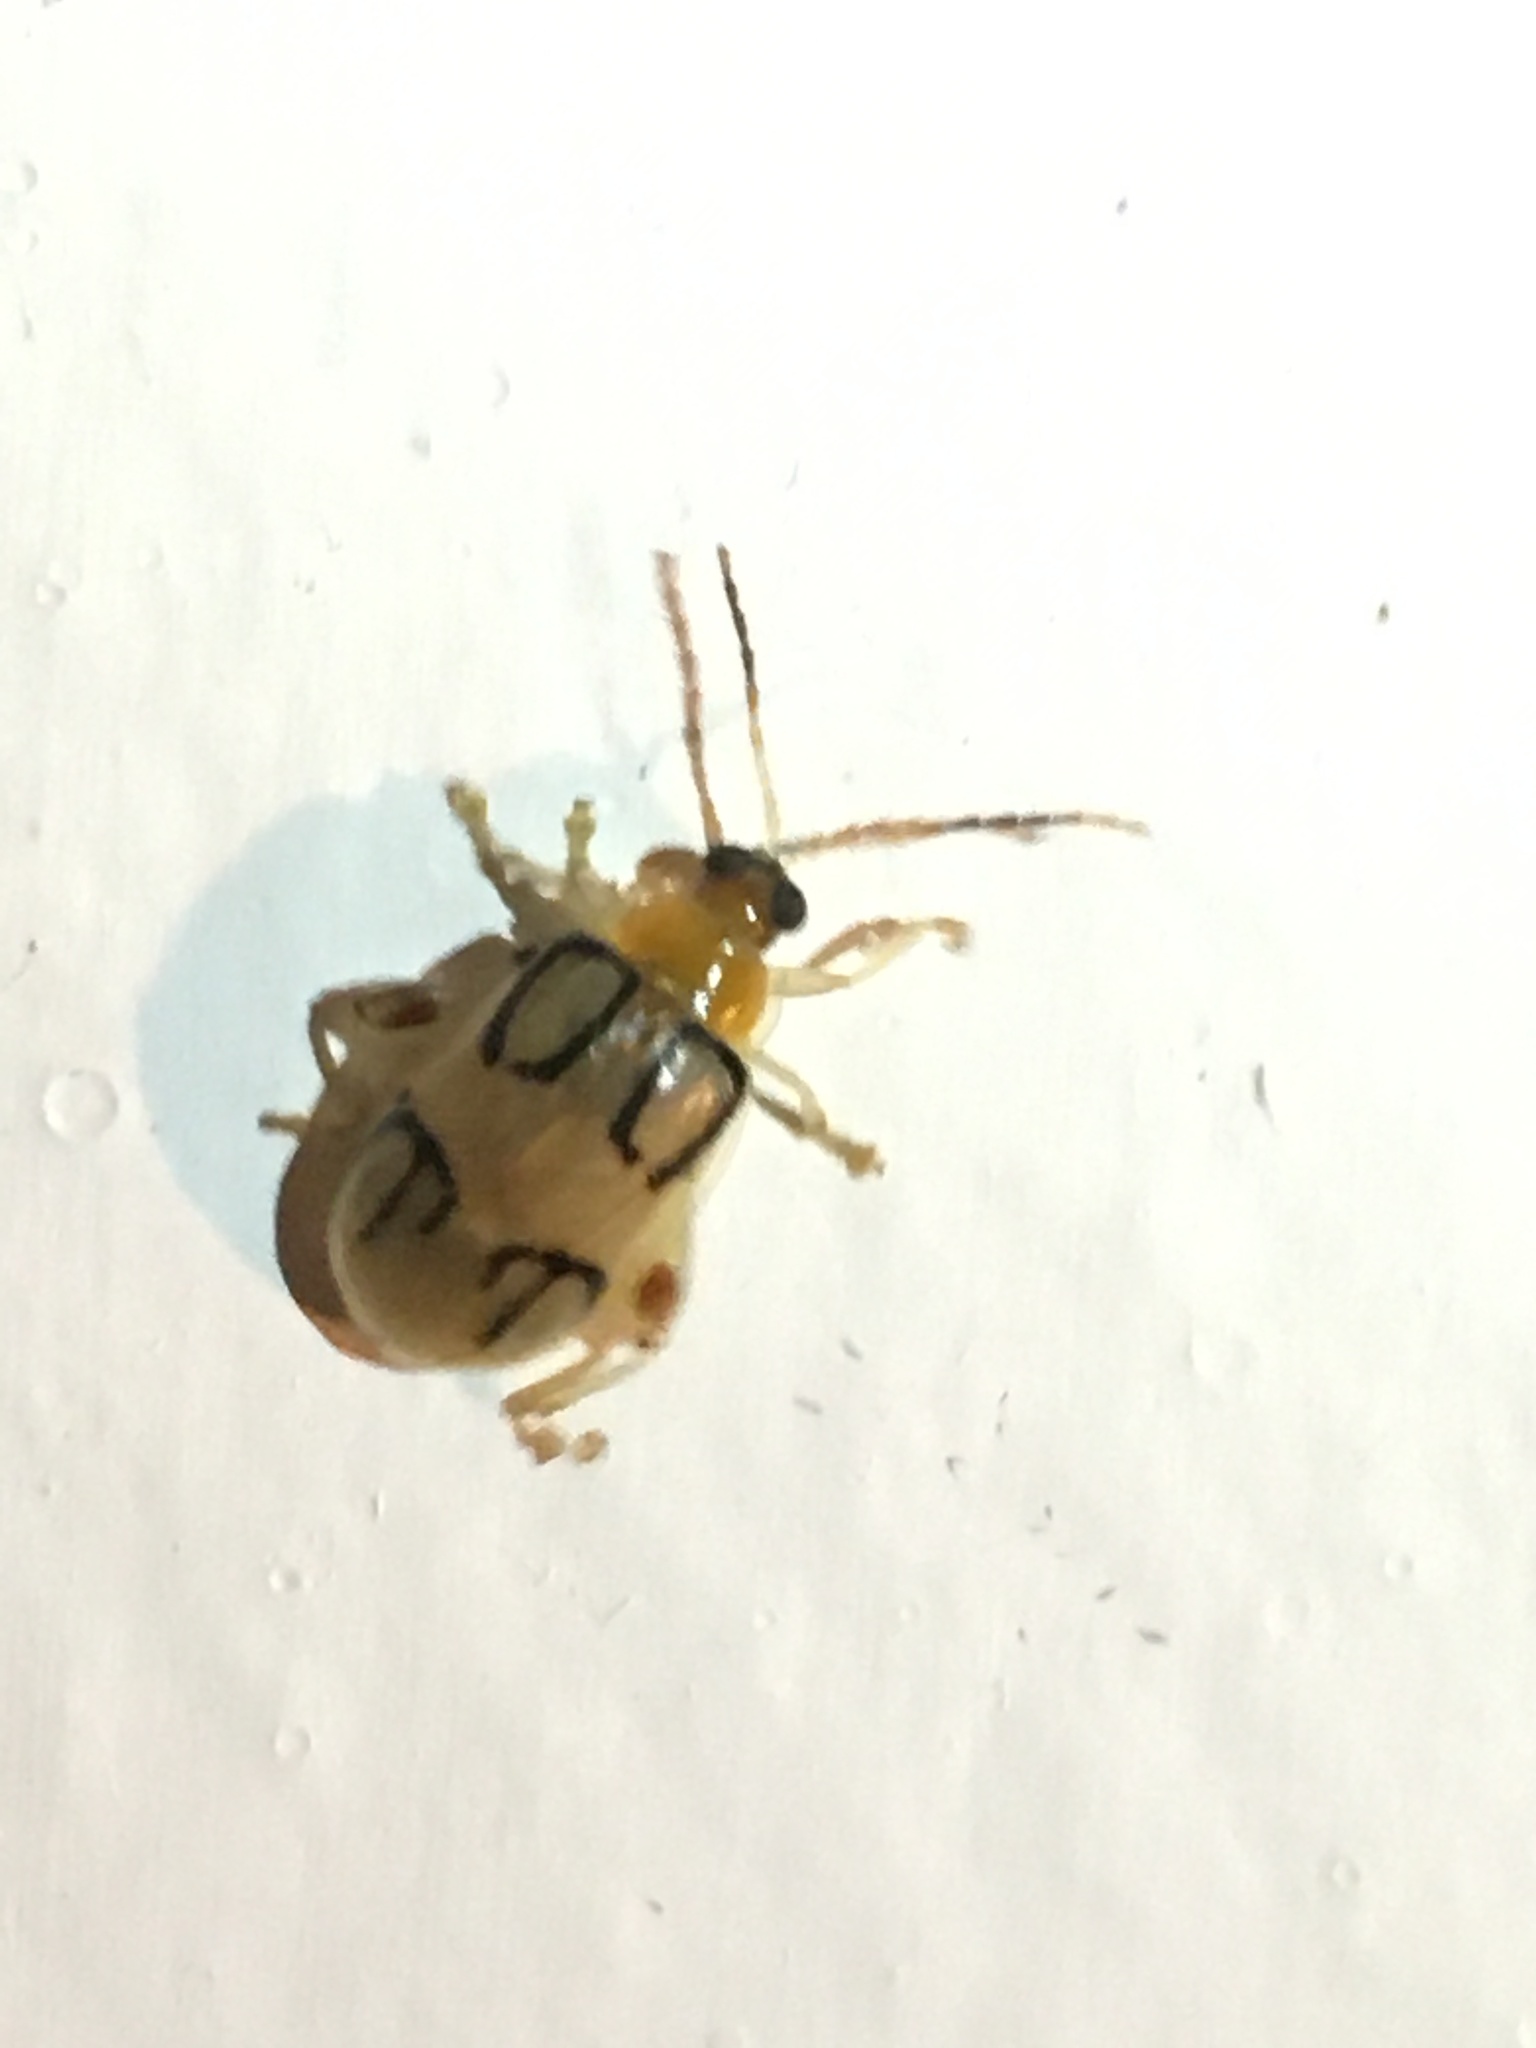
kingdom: Animalia
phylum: Arthropoda
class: Insecta
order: Coleoptera
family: Chrysomelidae
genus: Walterianella
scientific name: Walterianella
